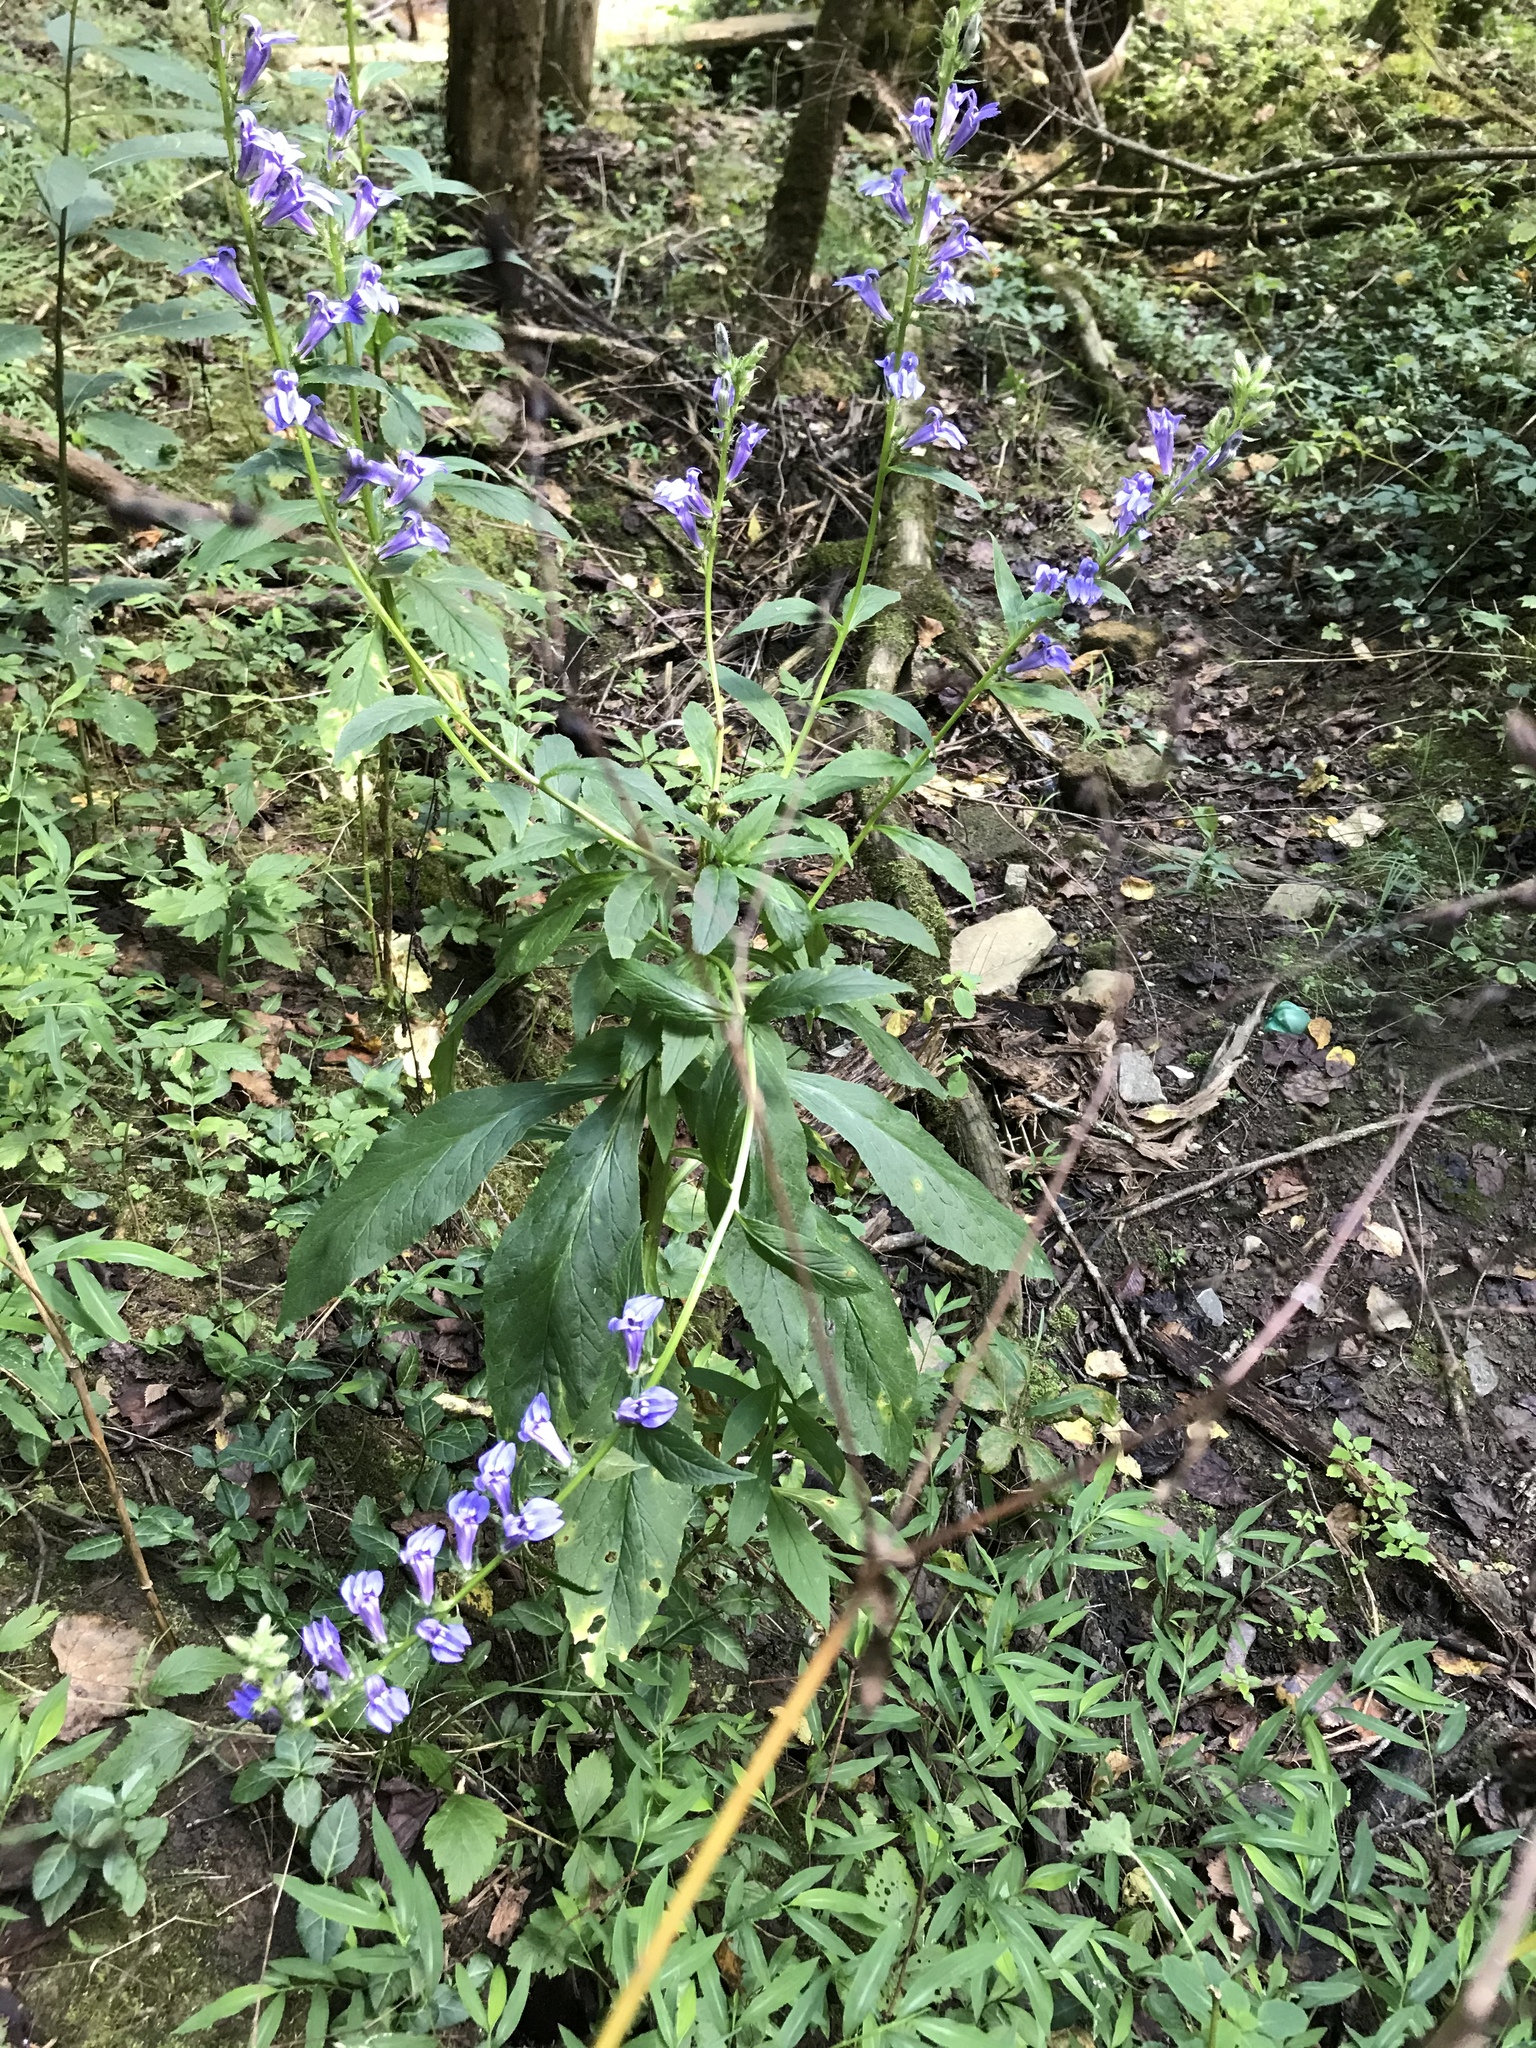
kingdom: Plantae
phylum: Tracheophyta
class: Magnoliopsida
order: Asterales
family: Campanulaceae
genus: Lobelia
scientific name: Lobelia siphilitica
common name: Great lobelia
